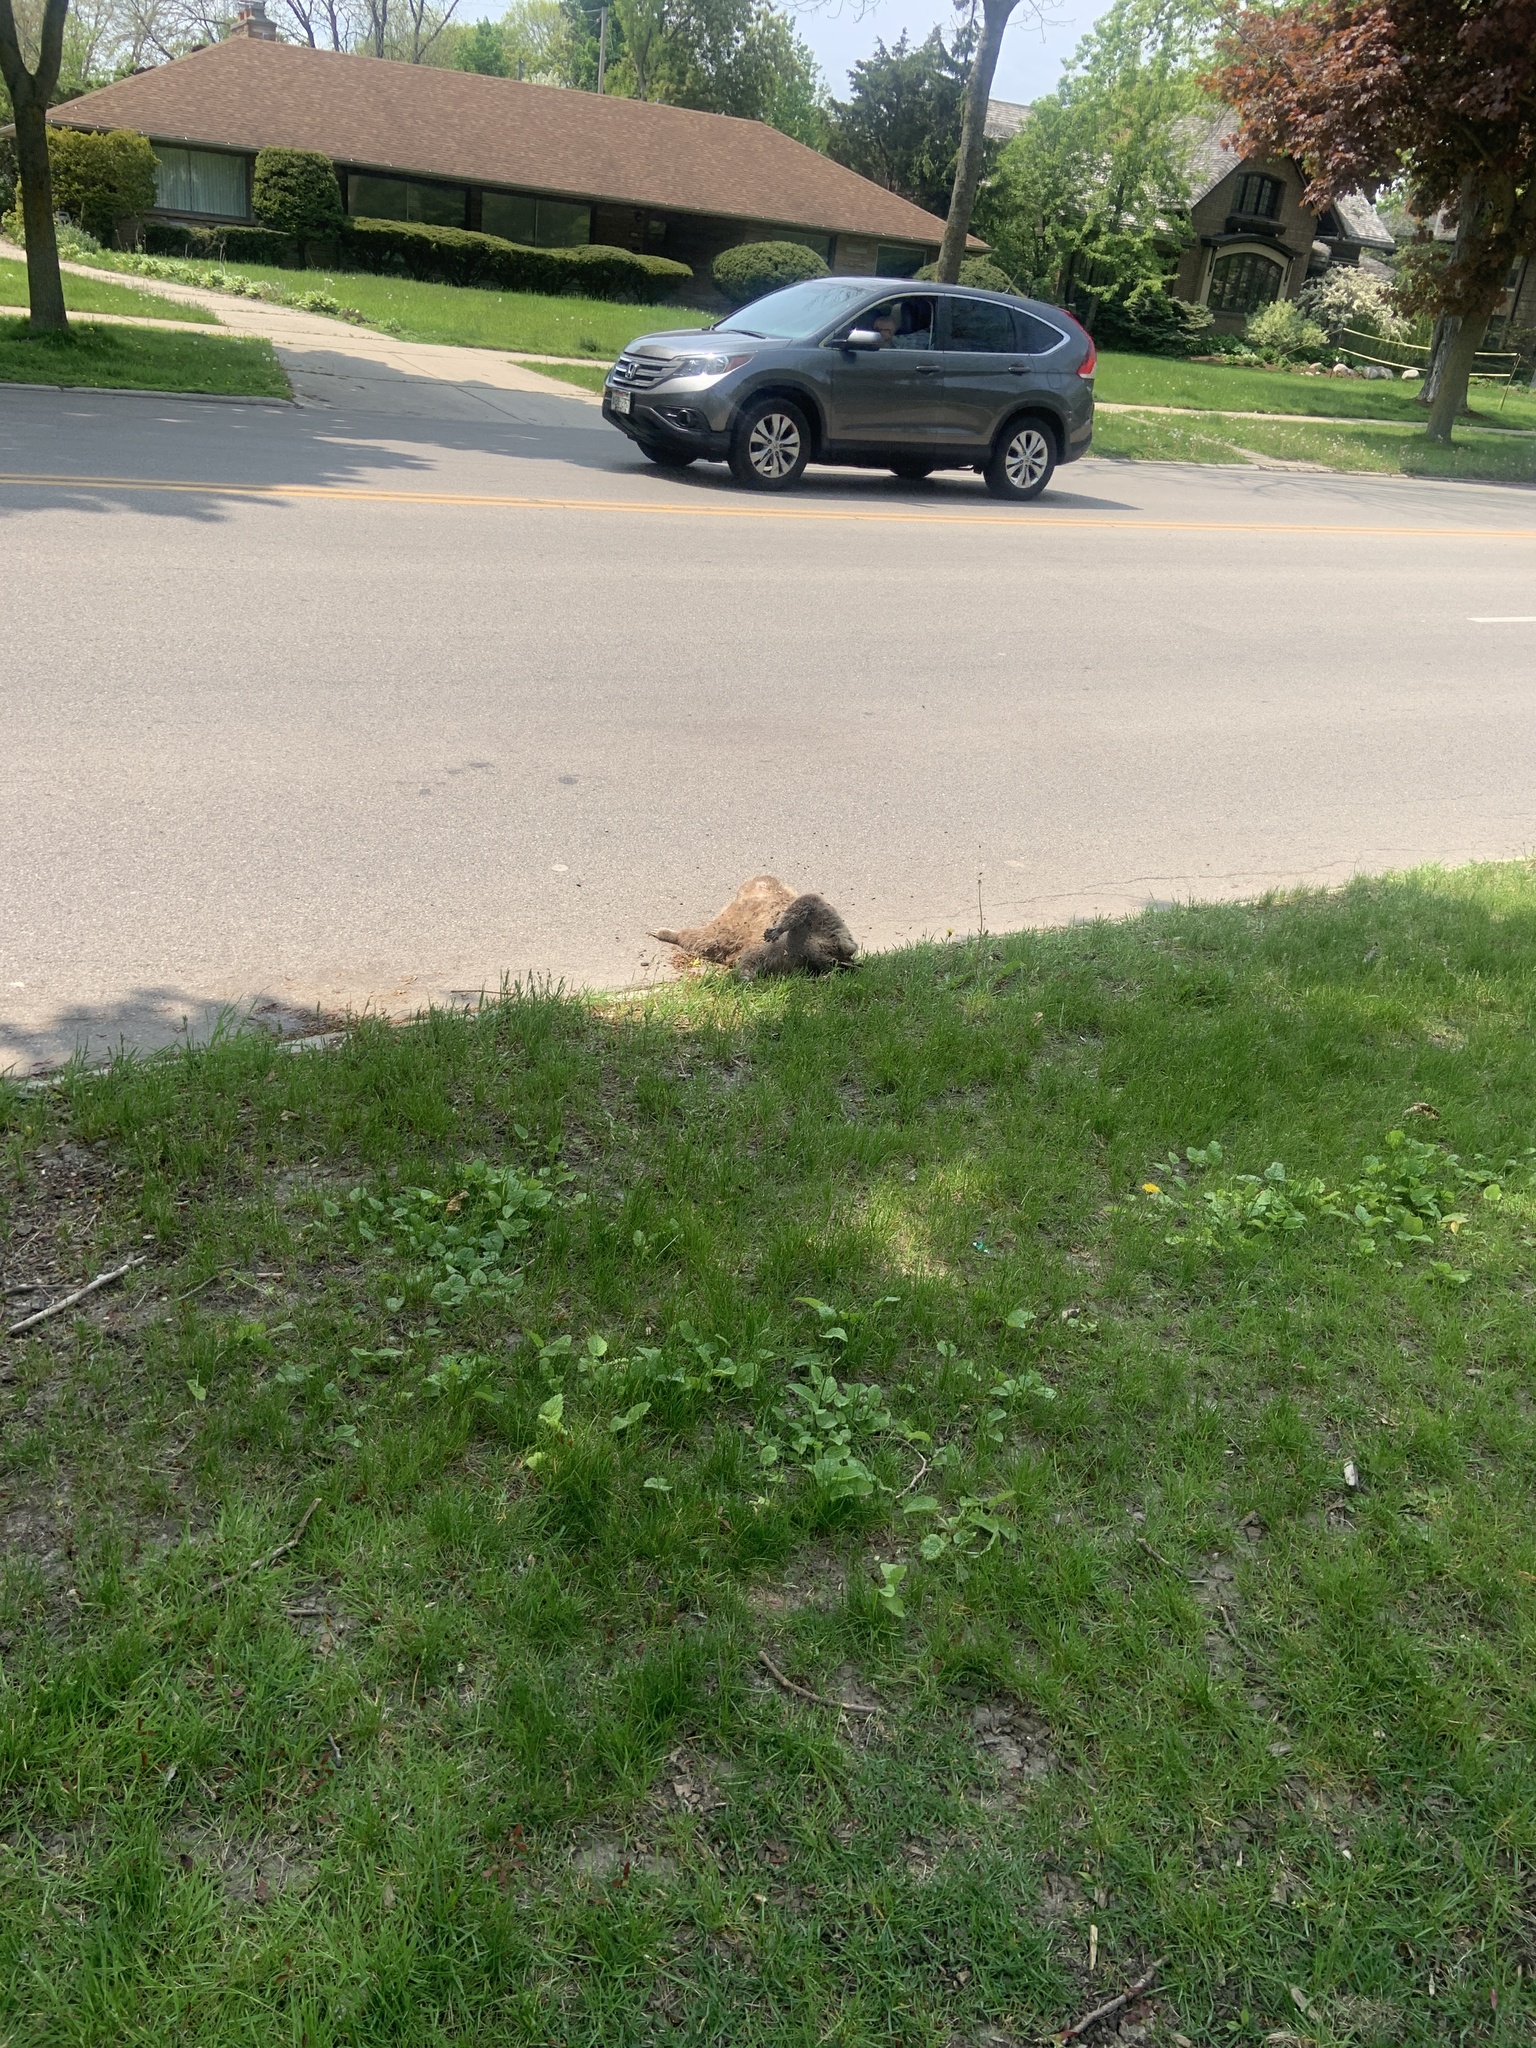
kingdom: Animalia
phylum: Chordata
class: Mammalia
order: Carnivora
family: Procyonidae
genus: Procyon
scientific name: Procyon lotor
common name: Raccoon
